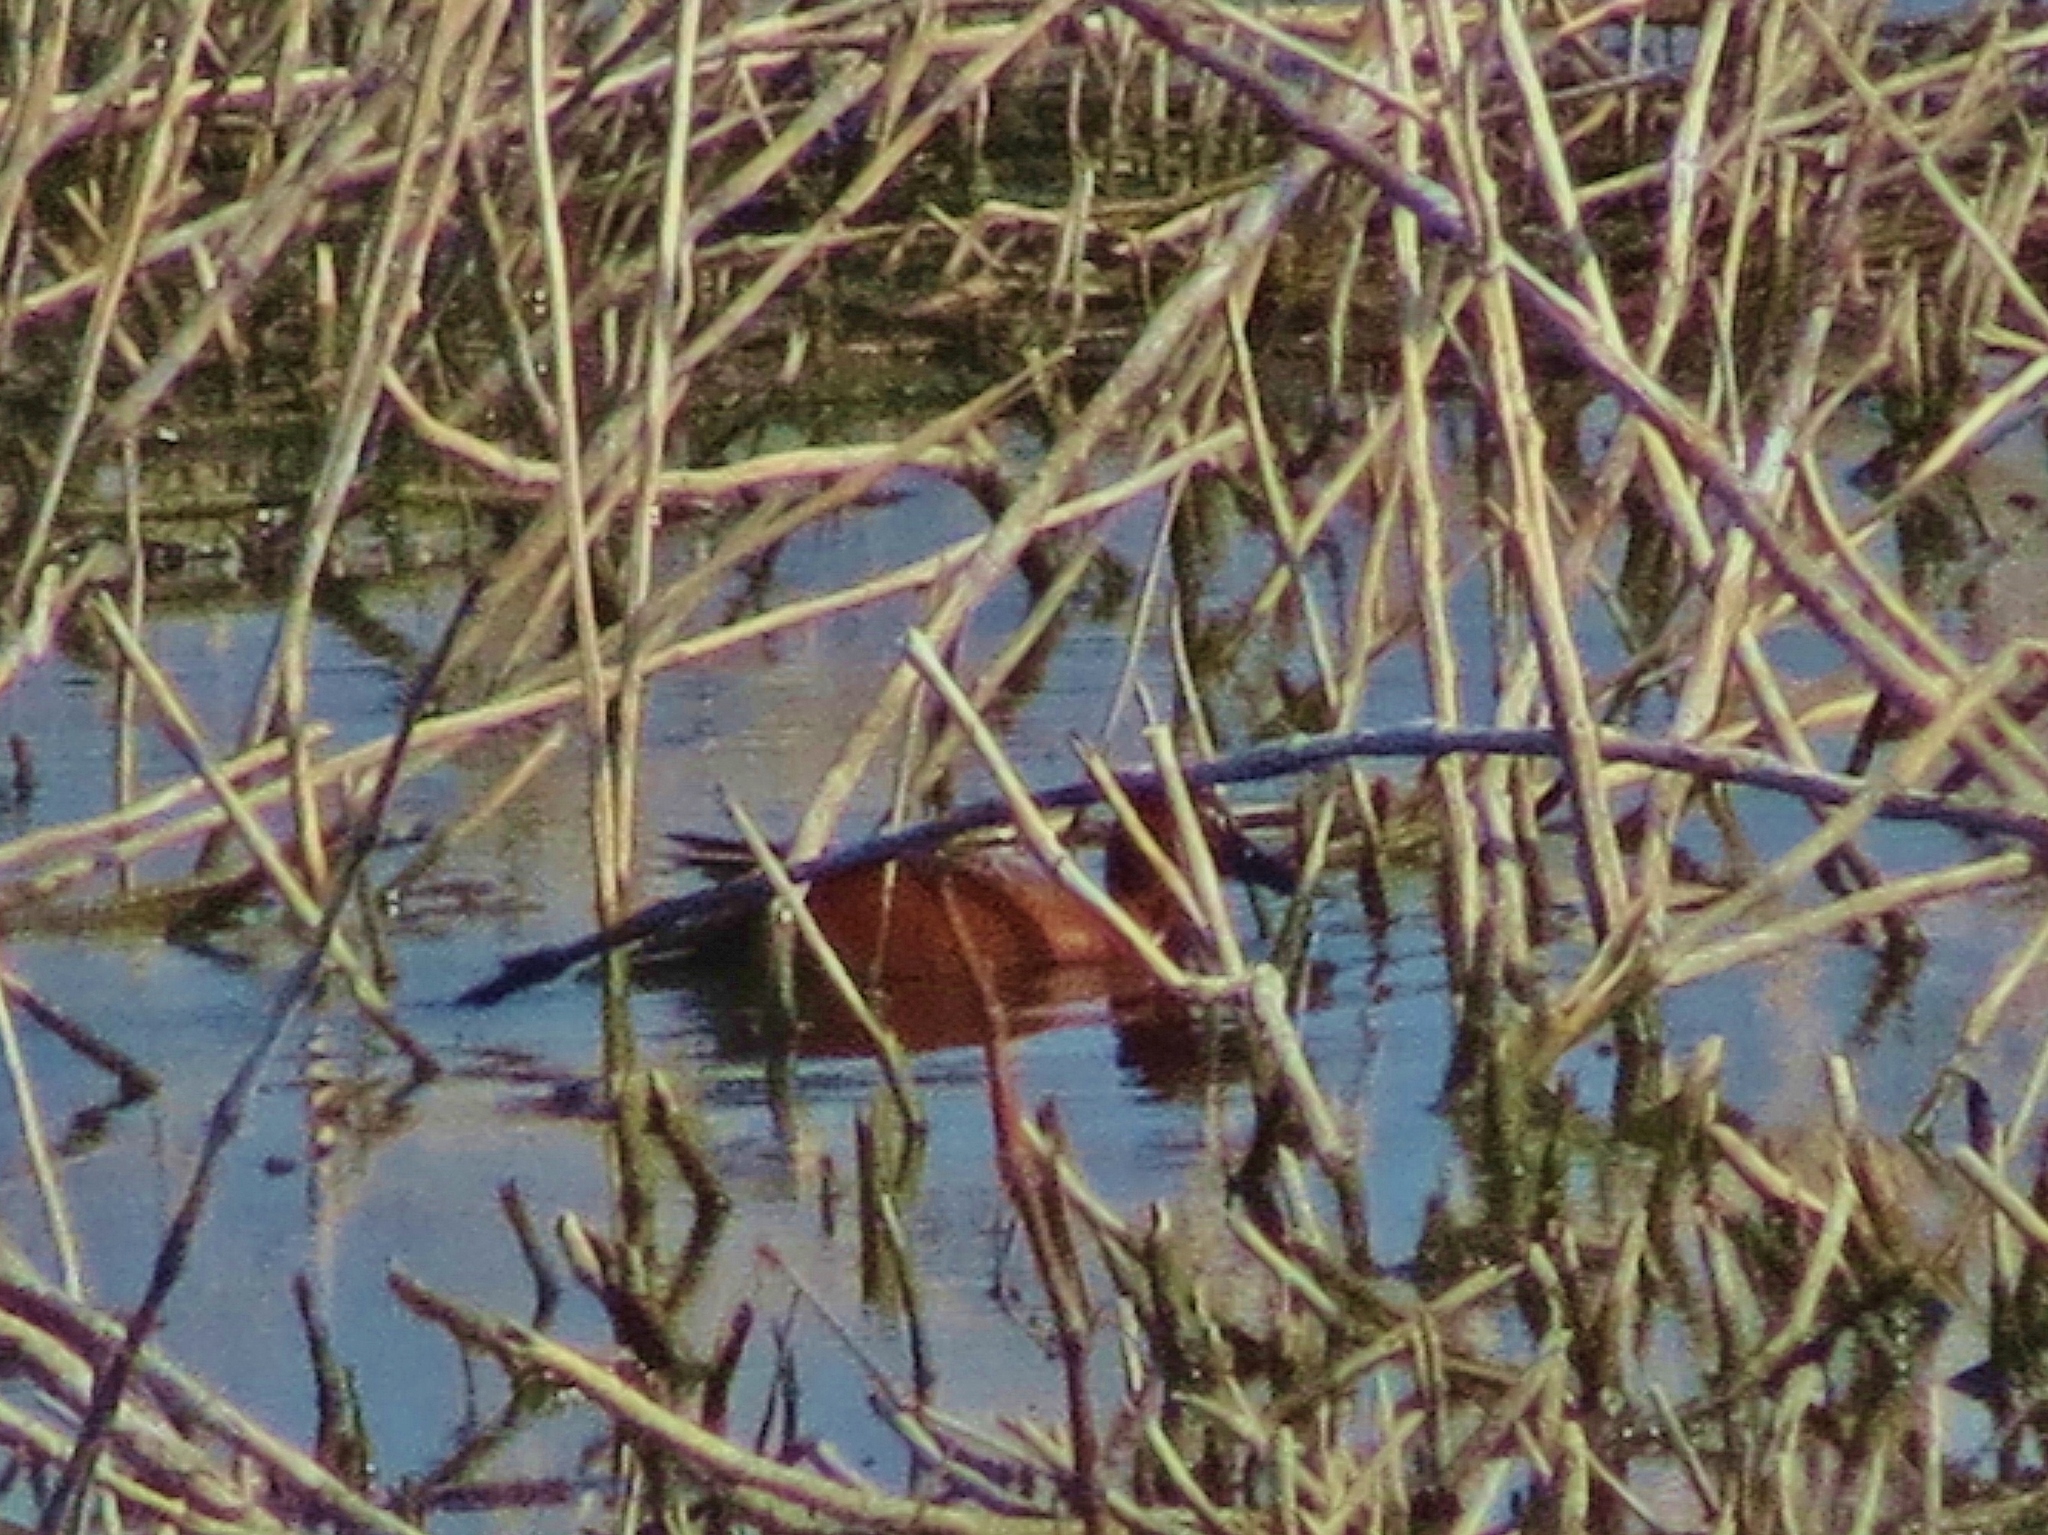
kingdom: Animalia
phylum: Chordata
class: Aves
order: Anseriformes
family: Anatidae
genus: Spatula
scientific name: Spatula cyanoptera
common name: Cinnamon teal
